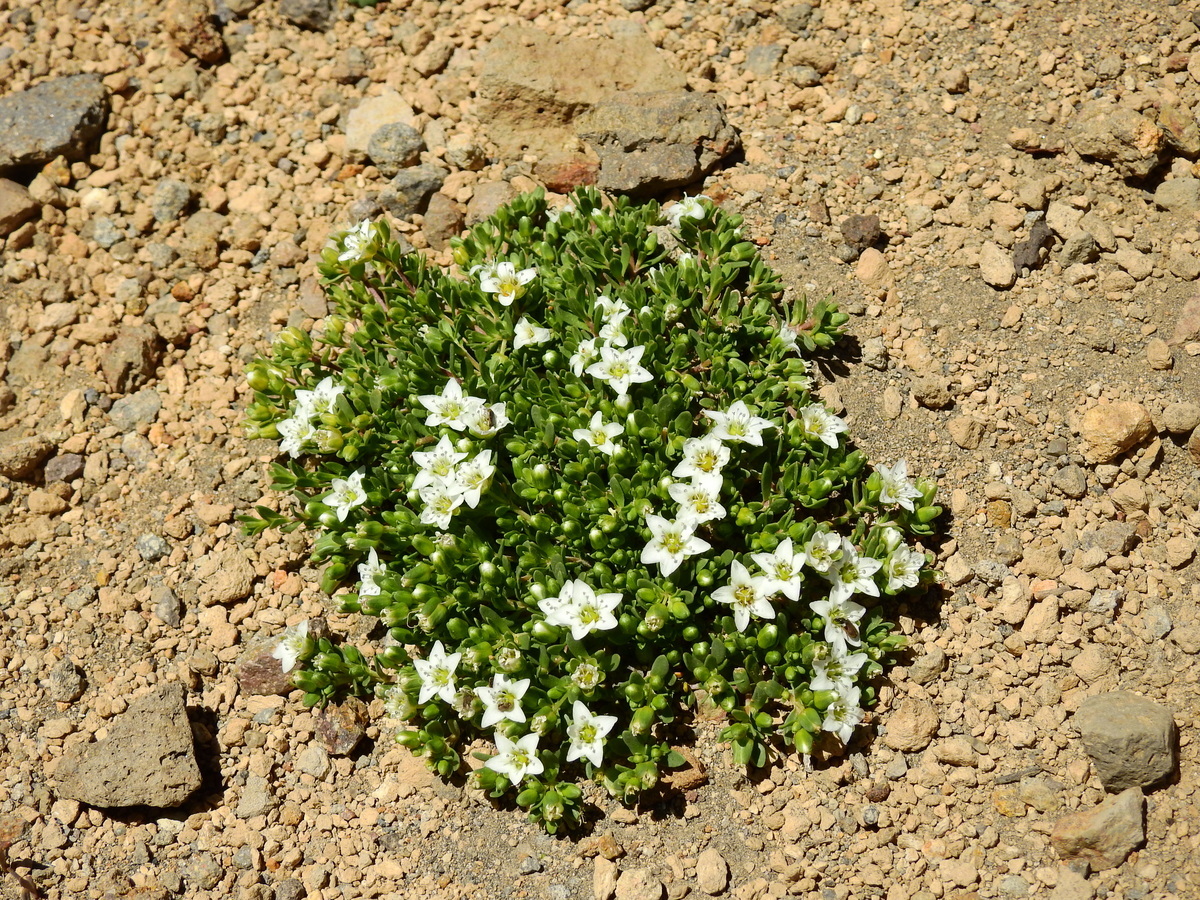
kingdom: Plantae
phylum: Tracheophyta
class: Magnoliopsida
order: Caryophyllales
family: Caryophyllaceae
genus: Arenaria
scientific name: Arenaria serpens
